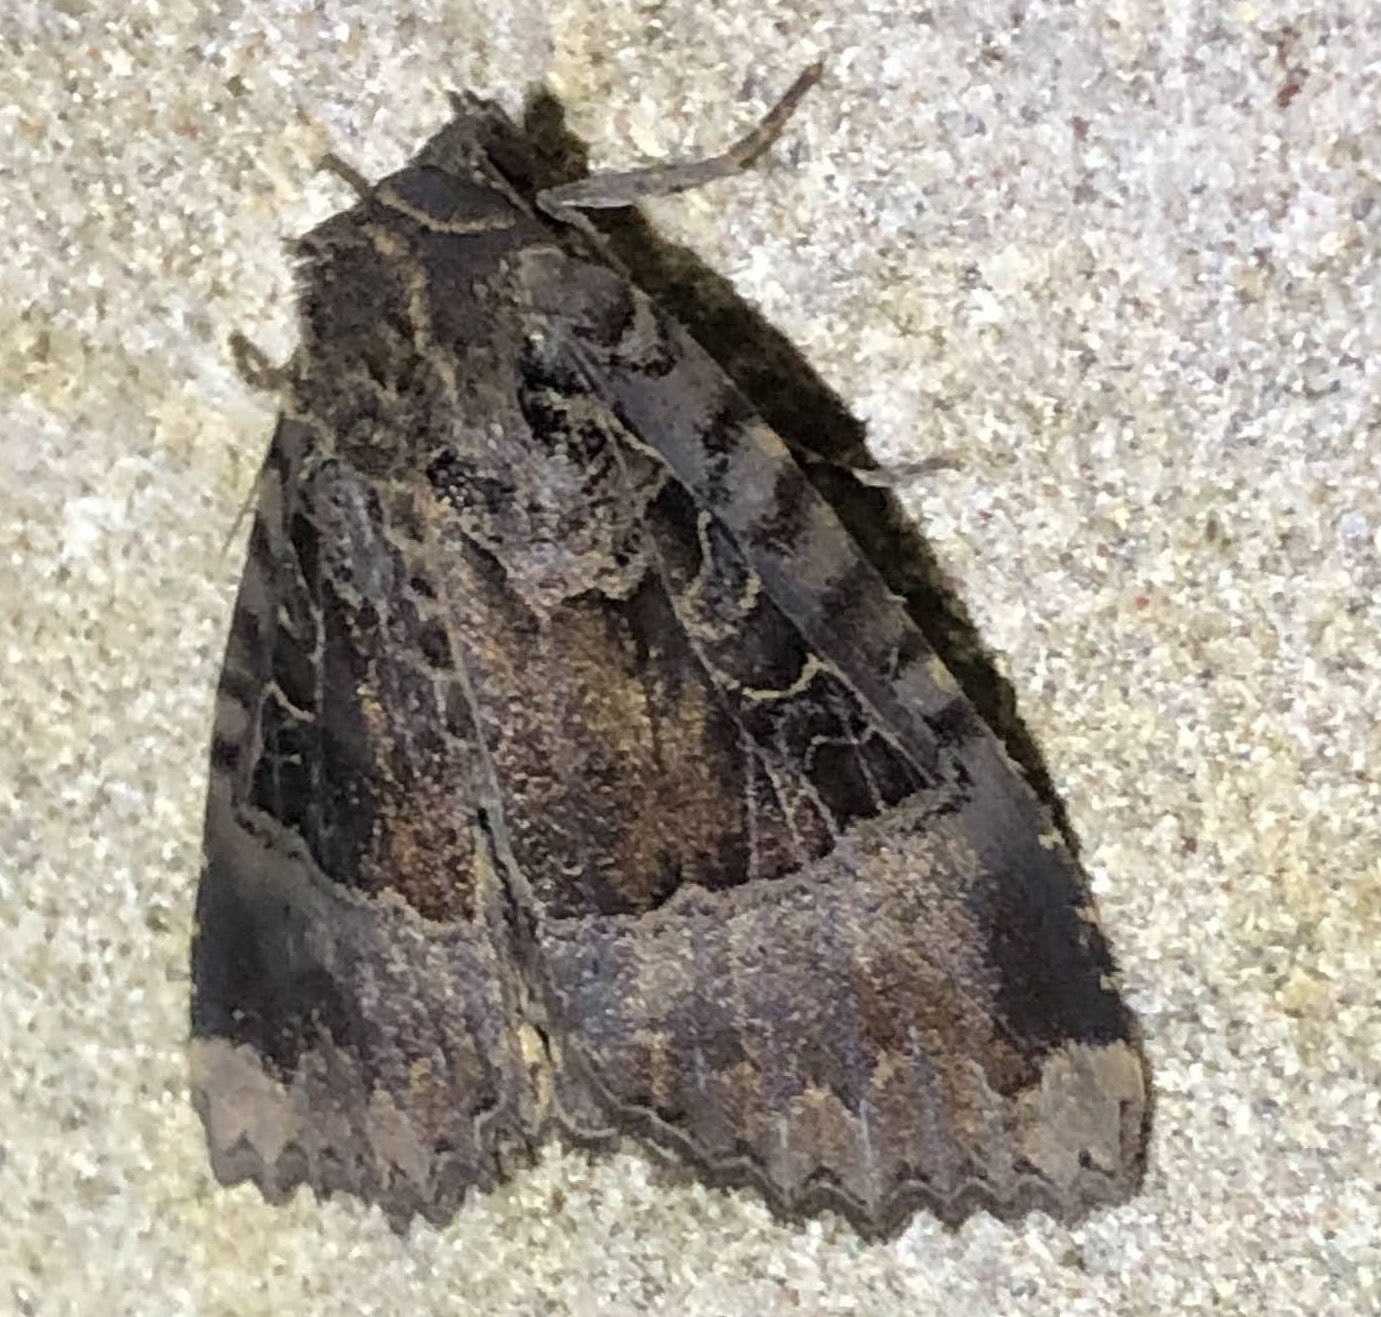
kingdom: Animalia
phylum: Arthropoda
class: Insecta
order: Lepidoptera
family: Noctuidae
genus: Mormo
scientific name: Mormo maura
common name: Old lady
